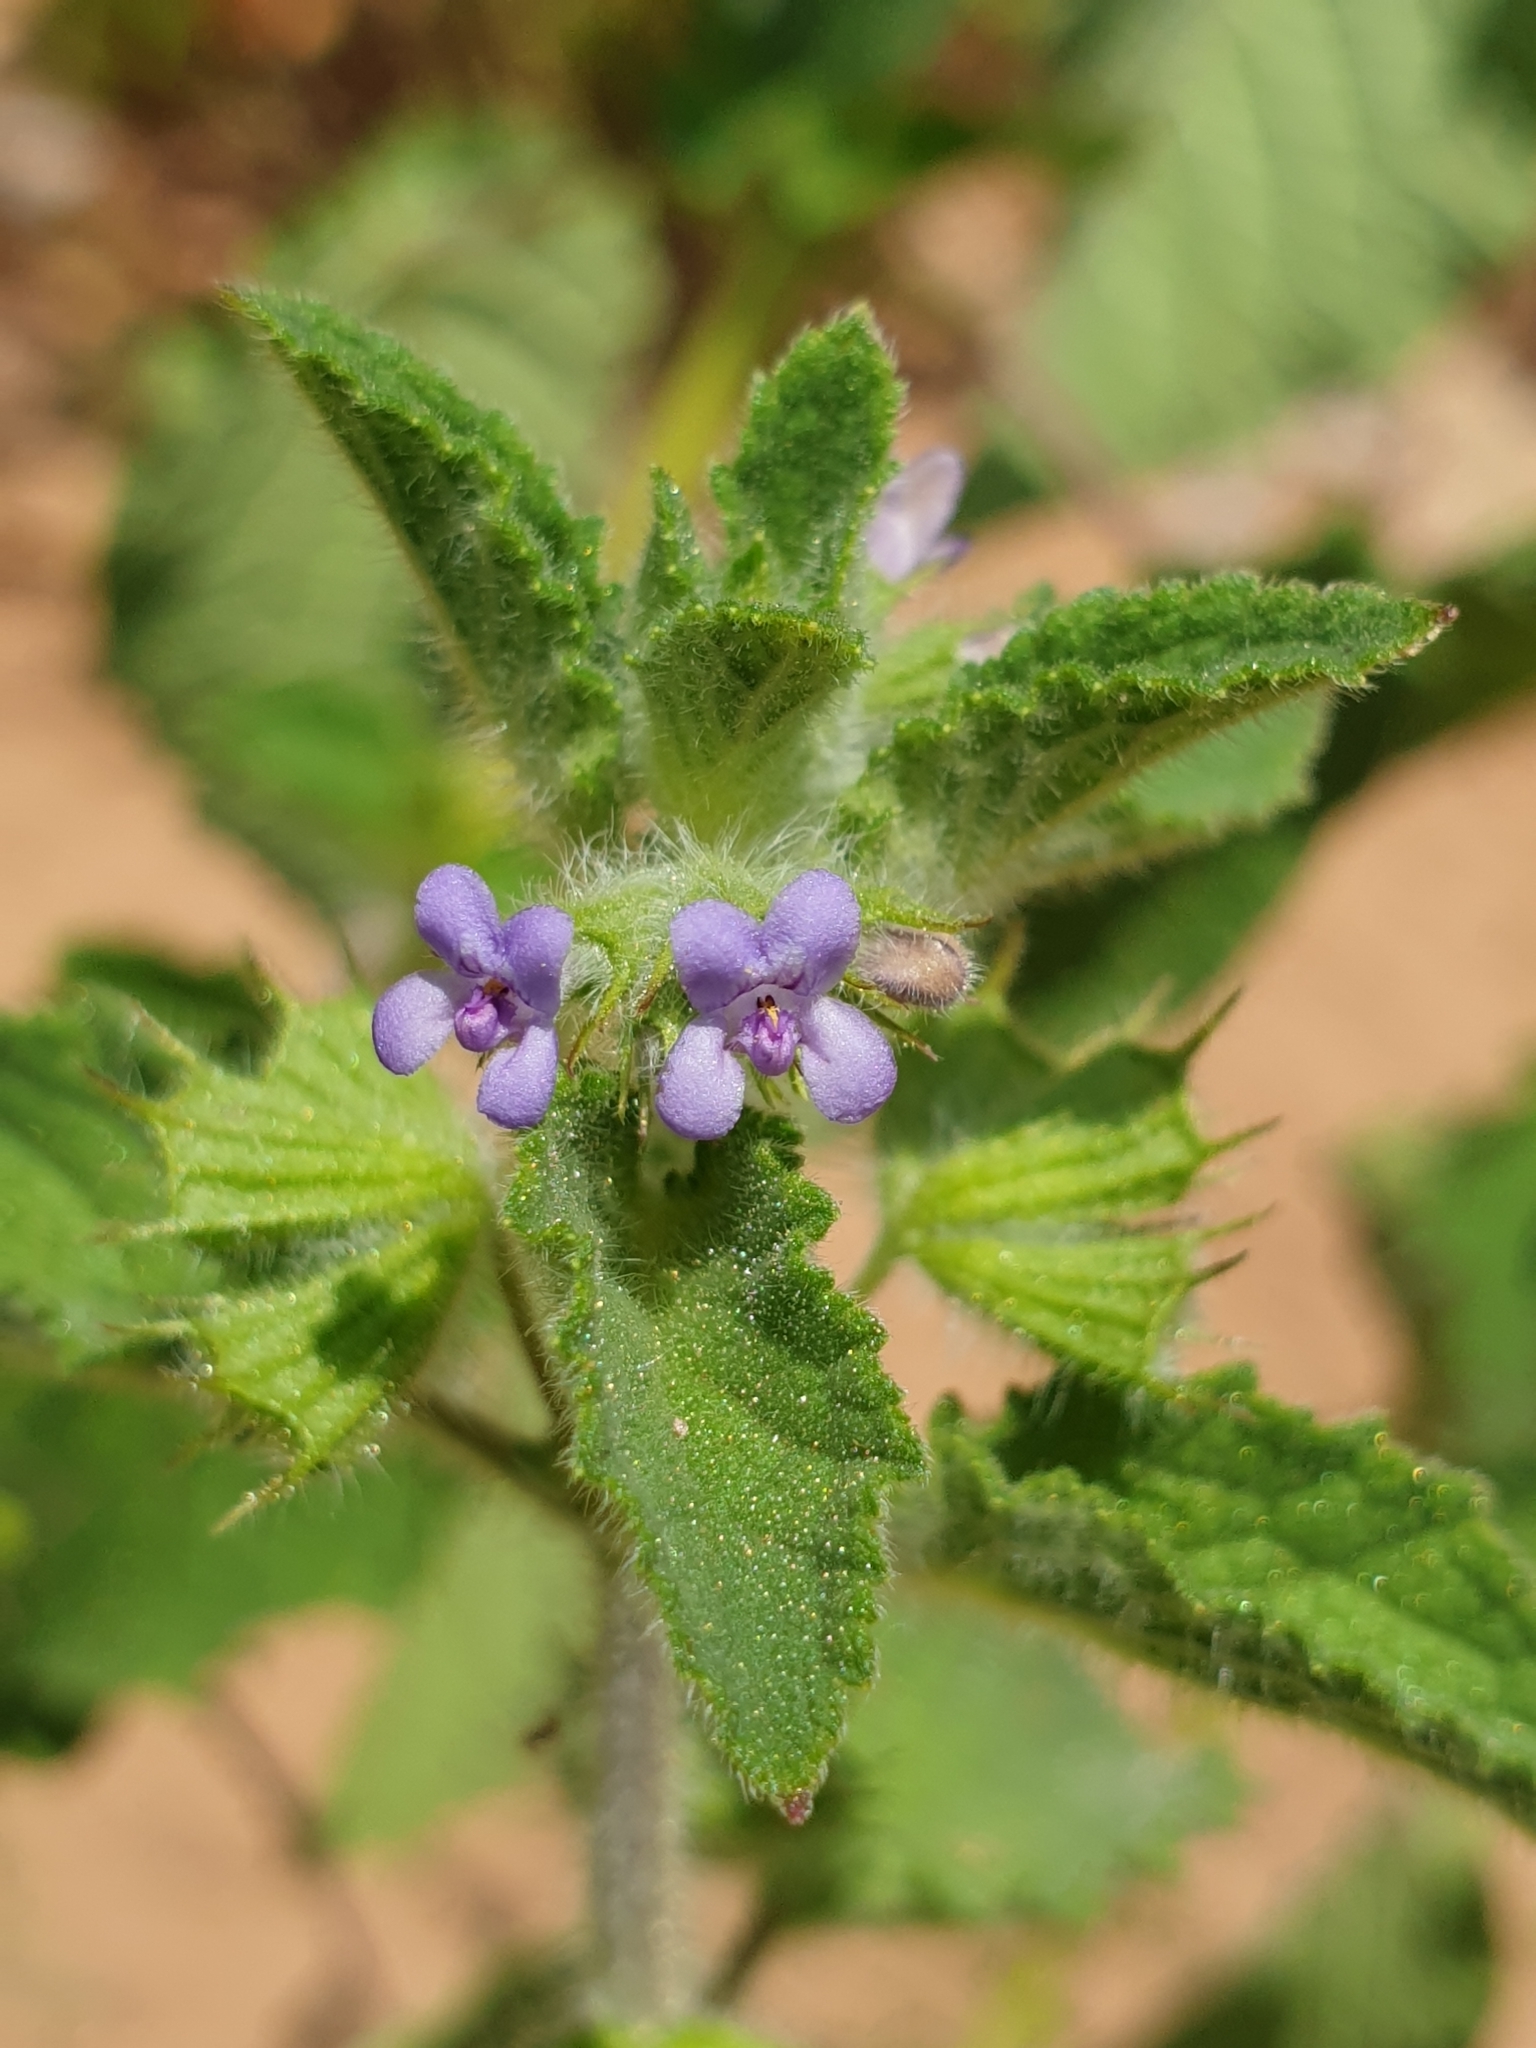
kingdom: Plantae
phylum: Tracheophyta
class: Magnoliopsida
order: Lamiales
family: Lamiaceae
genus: Mesosphaerum
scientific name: Mesosphaerum suaveolens
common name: Pignut
